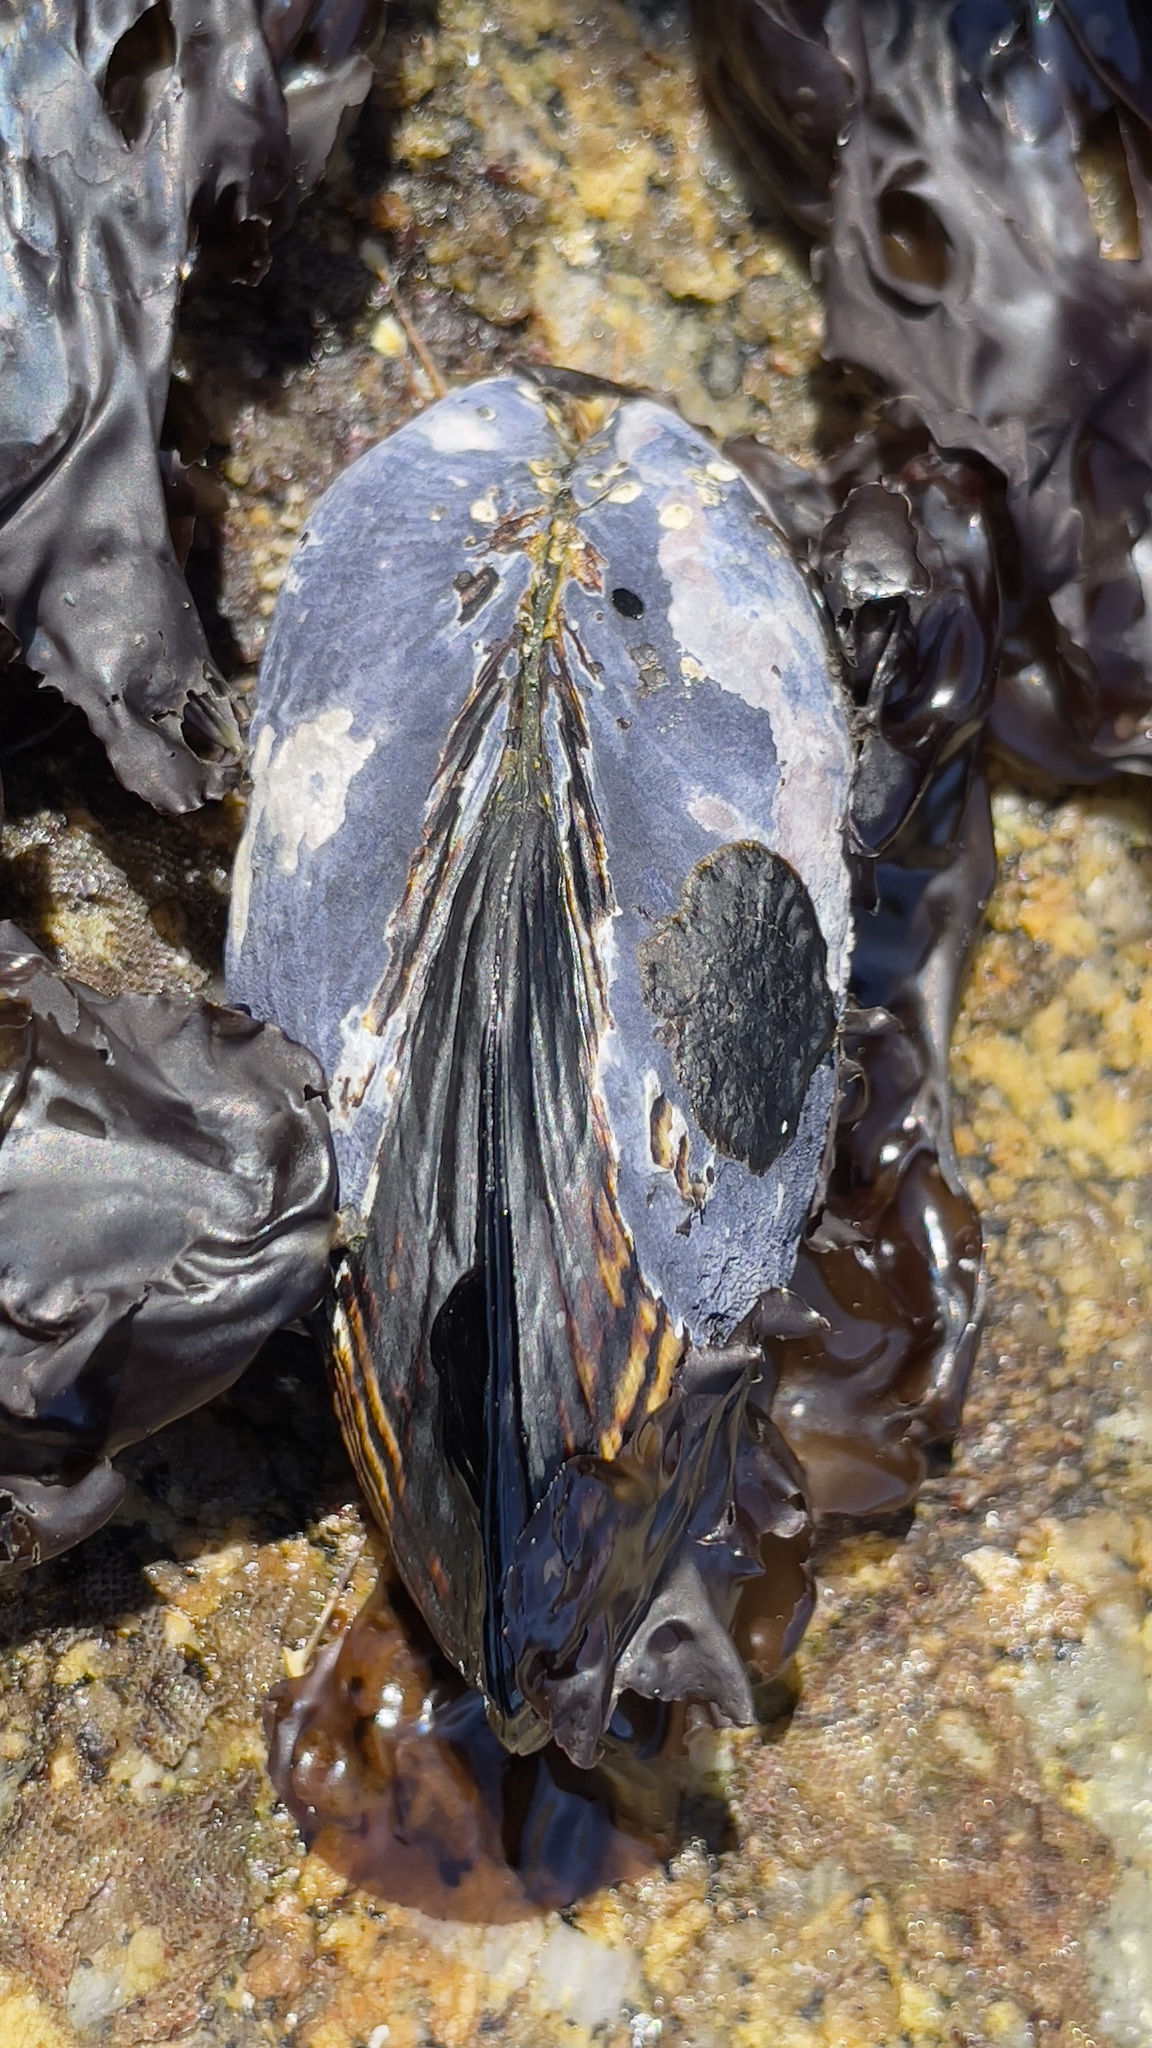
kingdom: Animalia
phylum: Mollusca
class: Bivalvia
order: Mytilida
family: Mytilidae
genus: Mytilus
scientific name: Mytilus californianus
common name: California mussel
